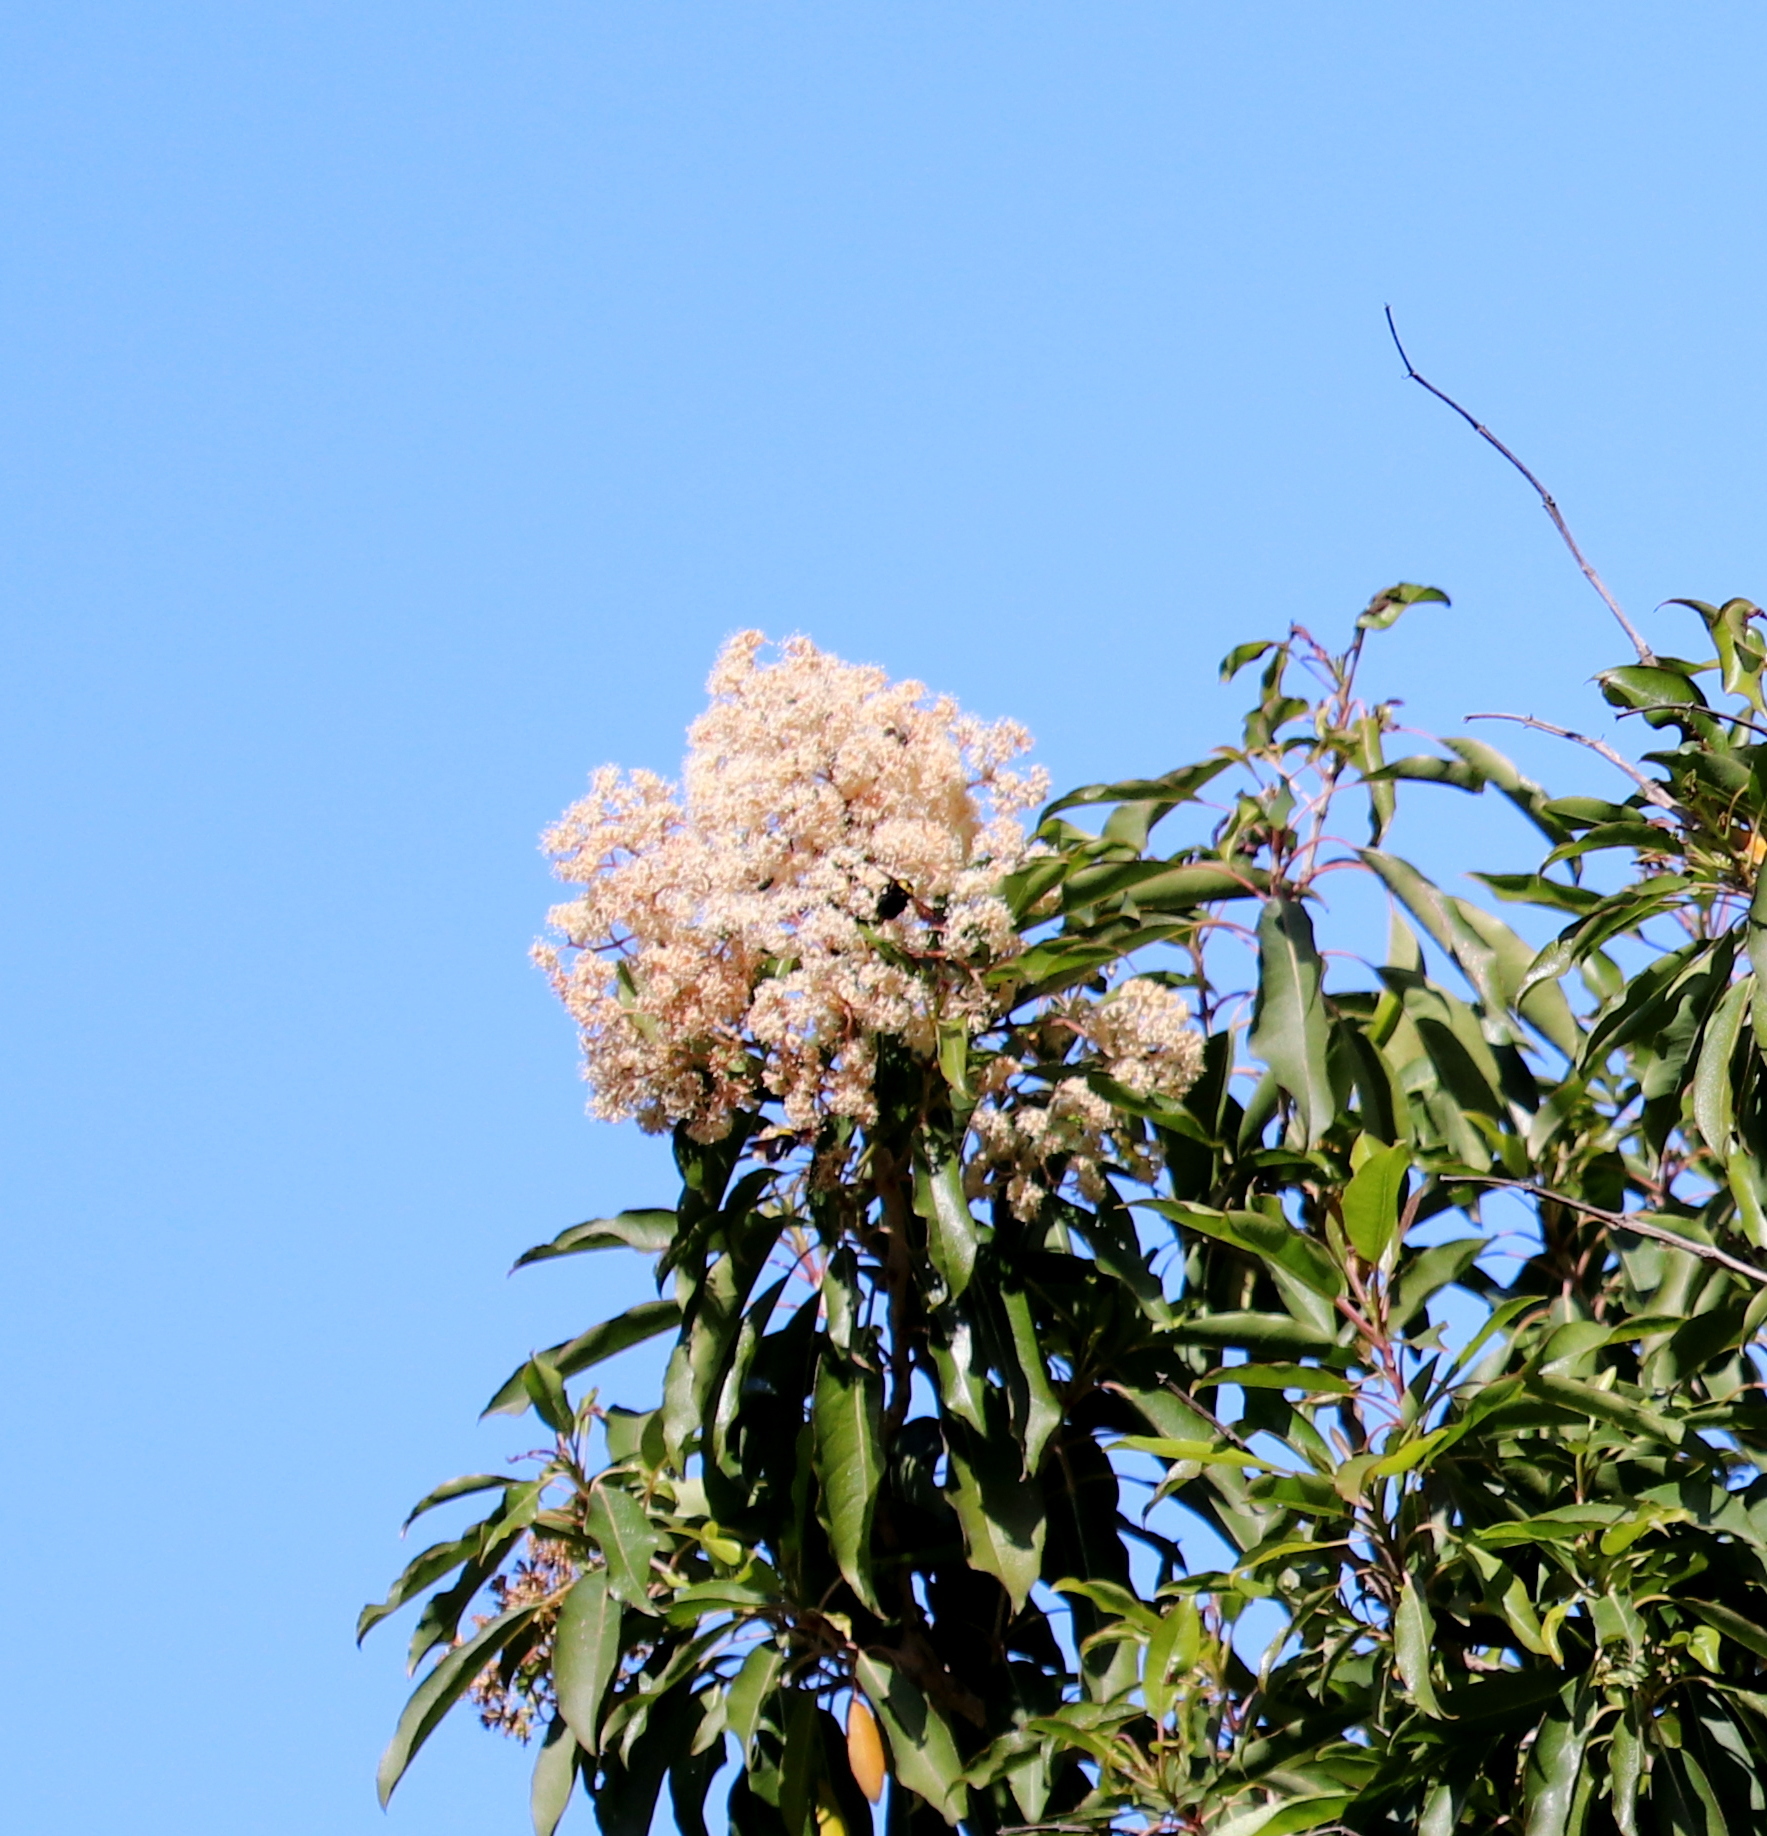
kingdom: Plantae
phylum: Tracheophyta
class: Magnoliopsida
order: Lamiales
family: Stilbaceae
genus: Nuxia
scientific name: Nuxia floribunda
